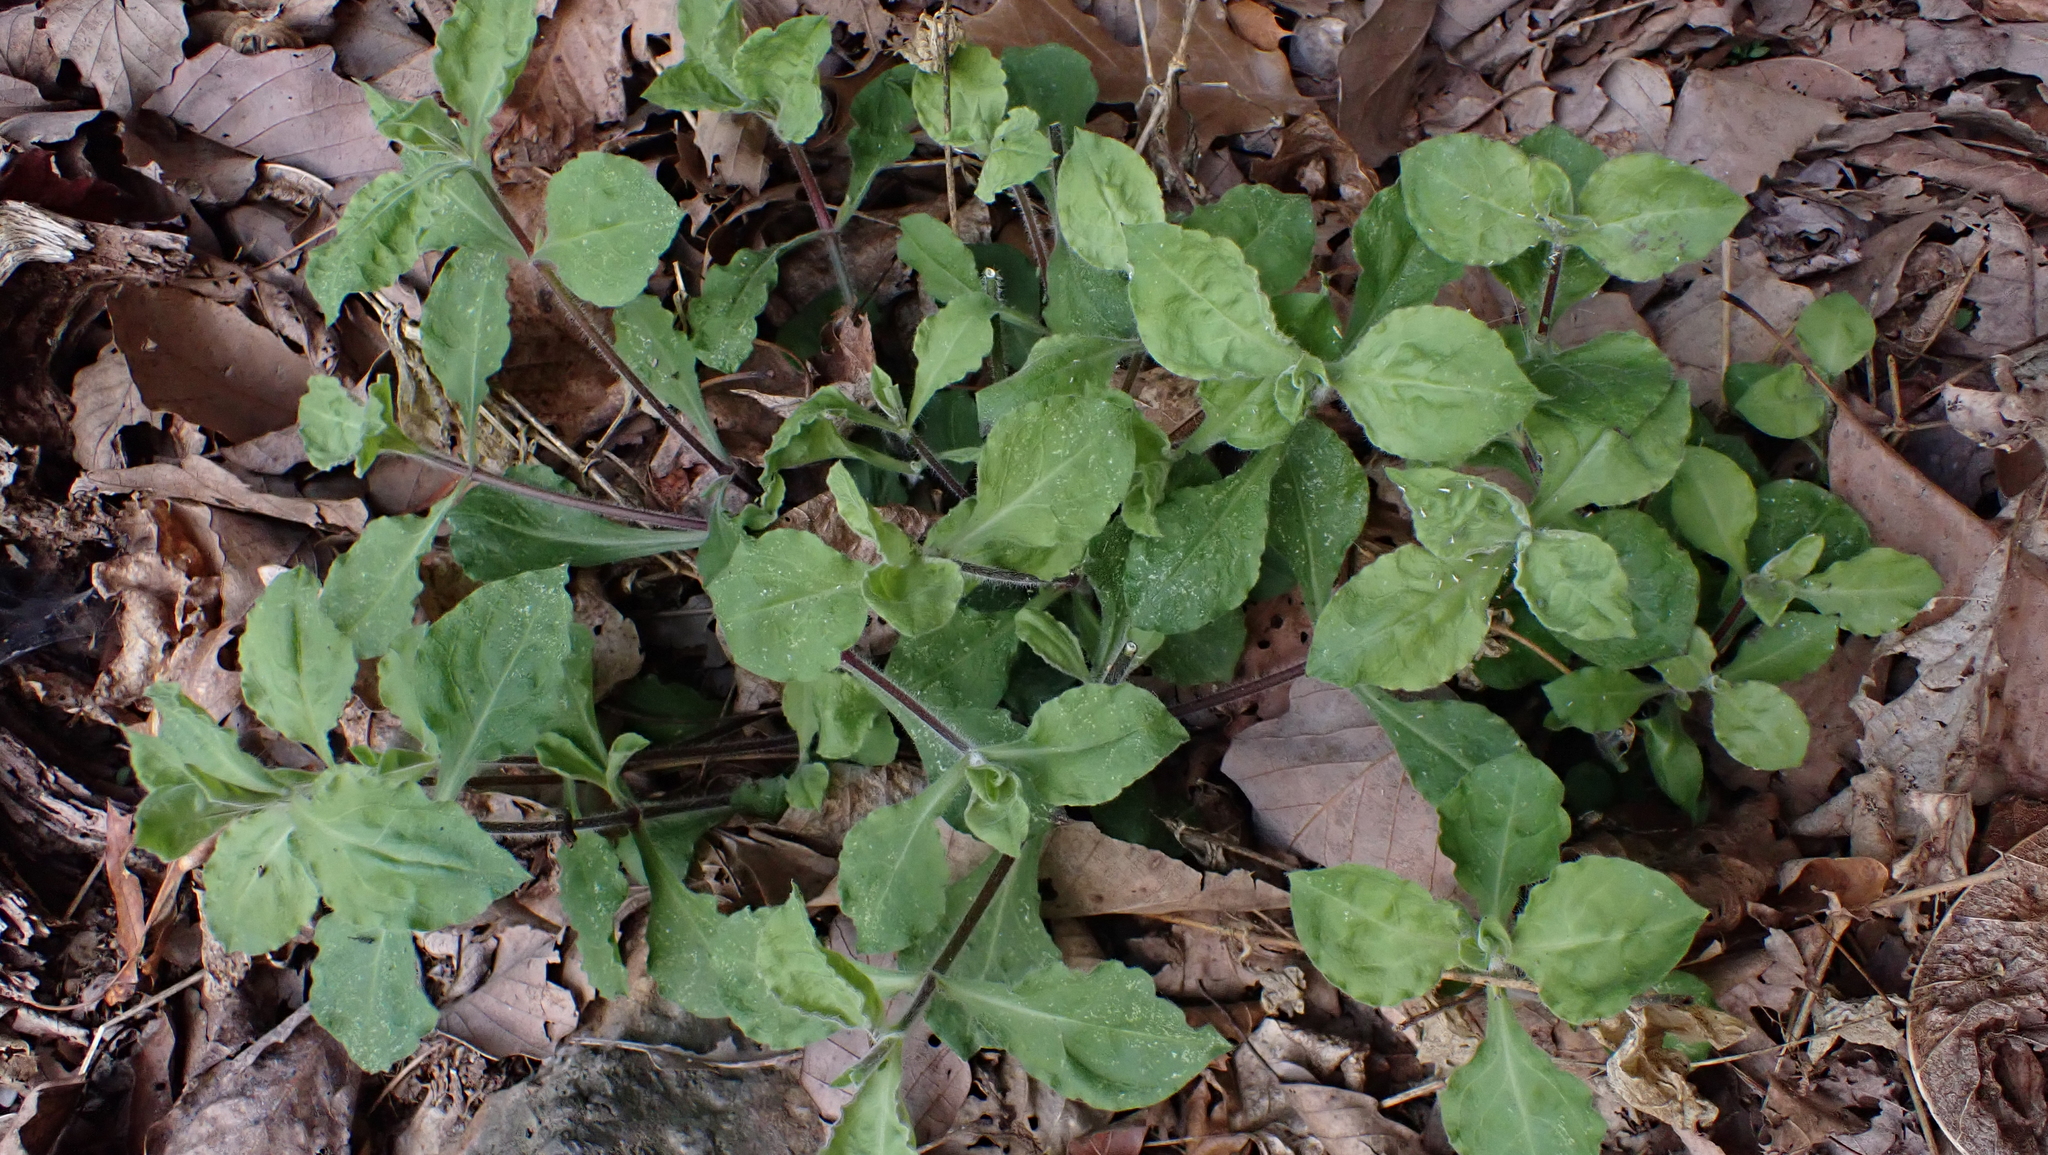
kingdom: Plantae
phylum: Tracheophyta
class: Magnoliopsida
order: Caryophyllales
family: Caryophyllaceae
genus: Silene
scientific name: Silene rotundifolia
